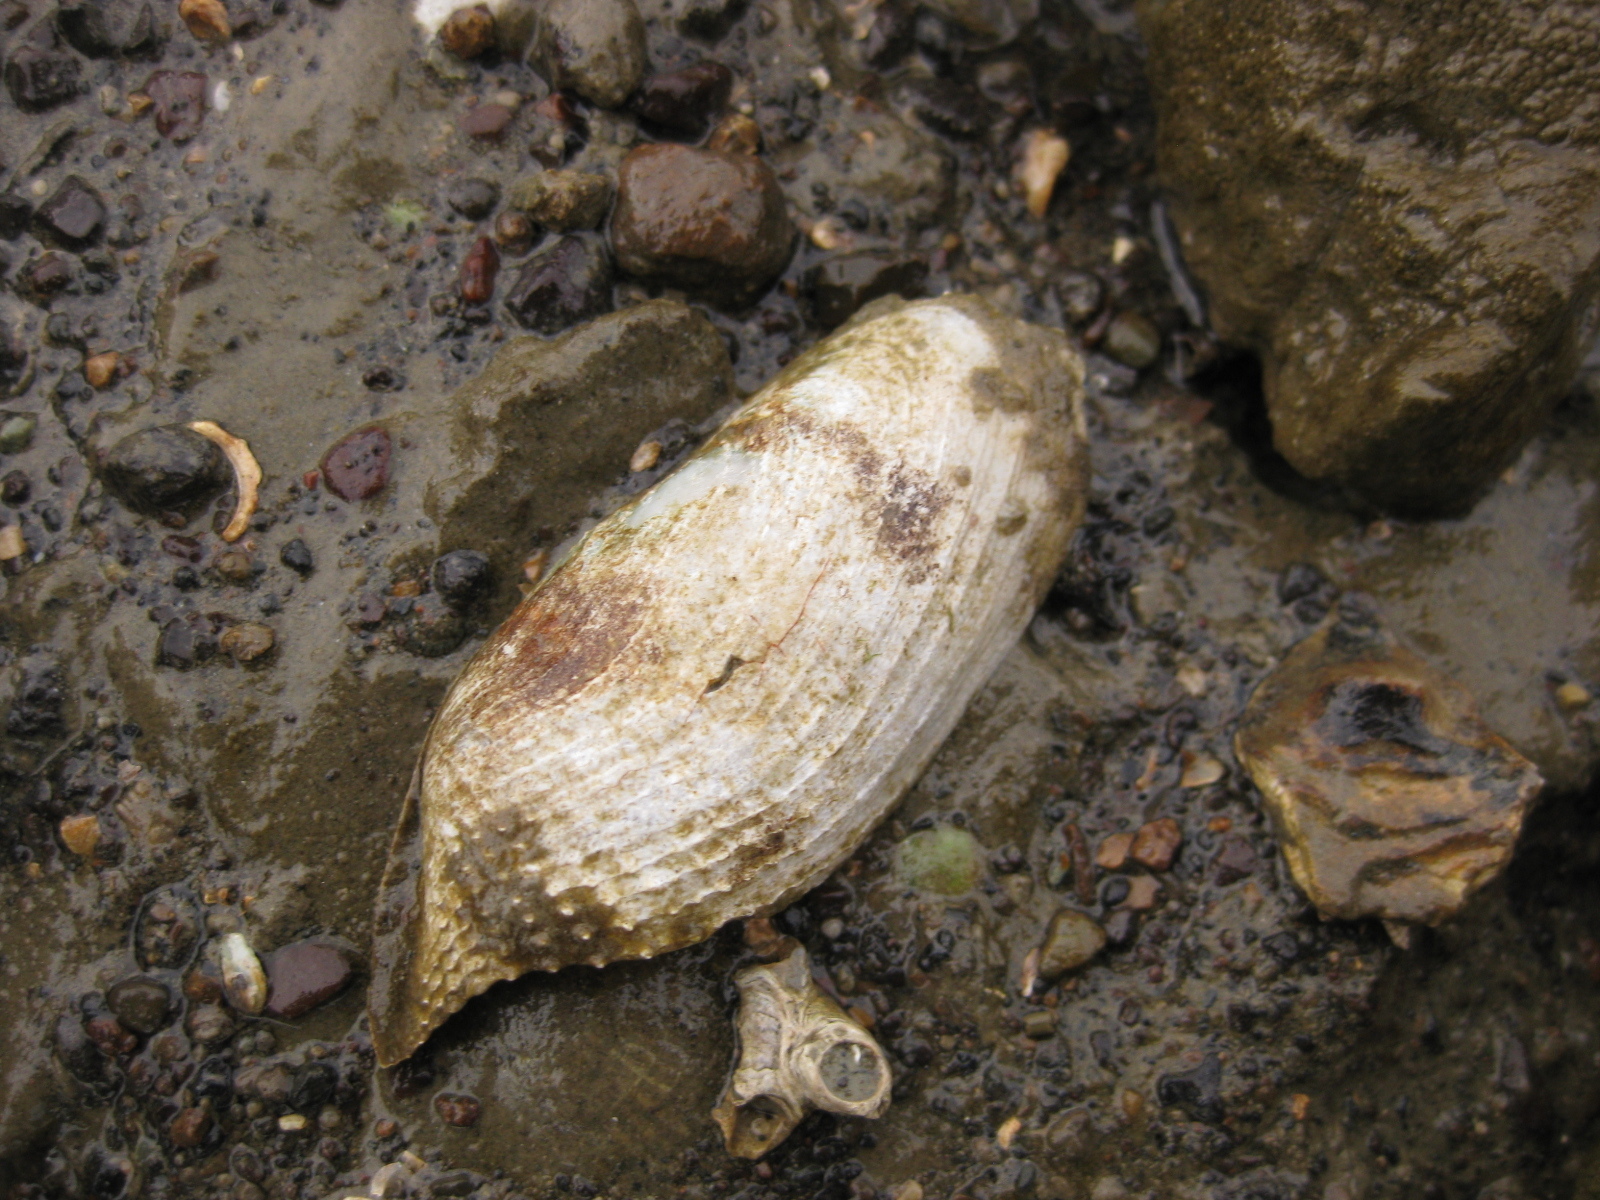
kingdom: Animalia
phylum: Mollusca
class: Bivalvia
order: Myida
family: Pholadidae
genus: Barnea
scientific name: Barnea similis
